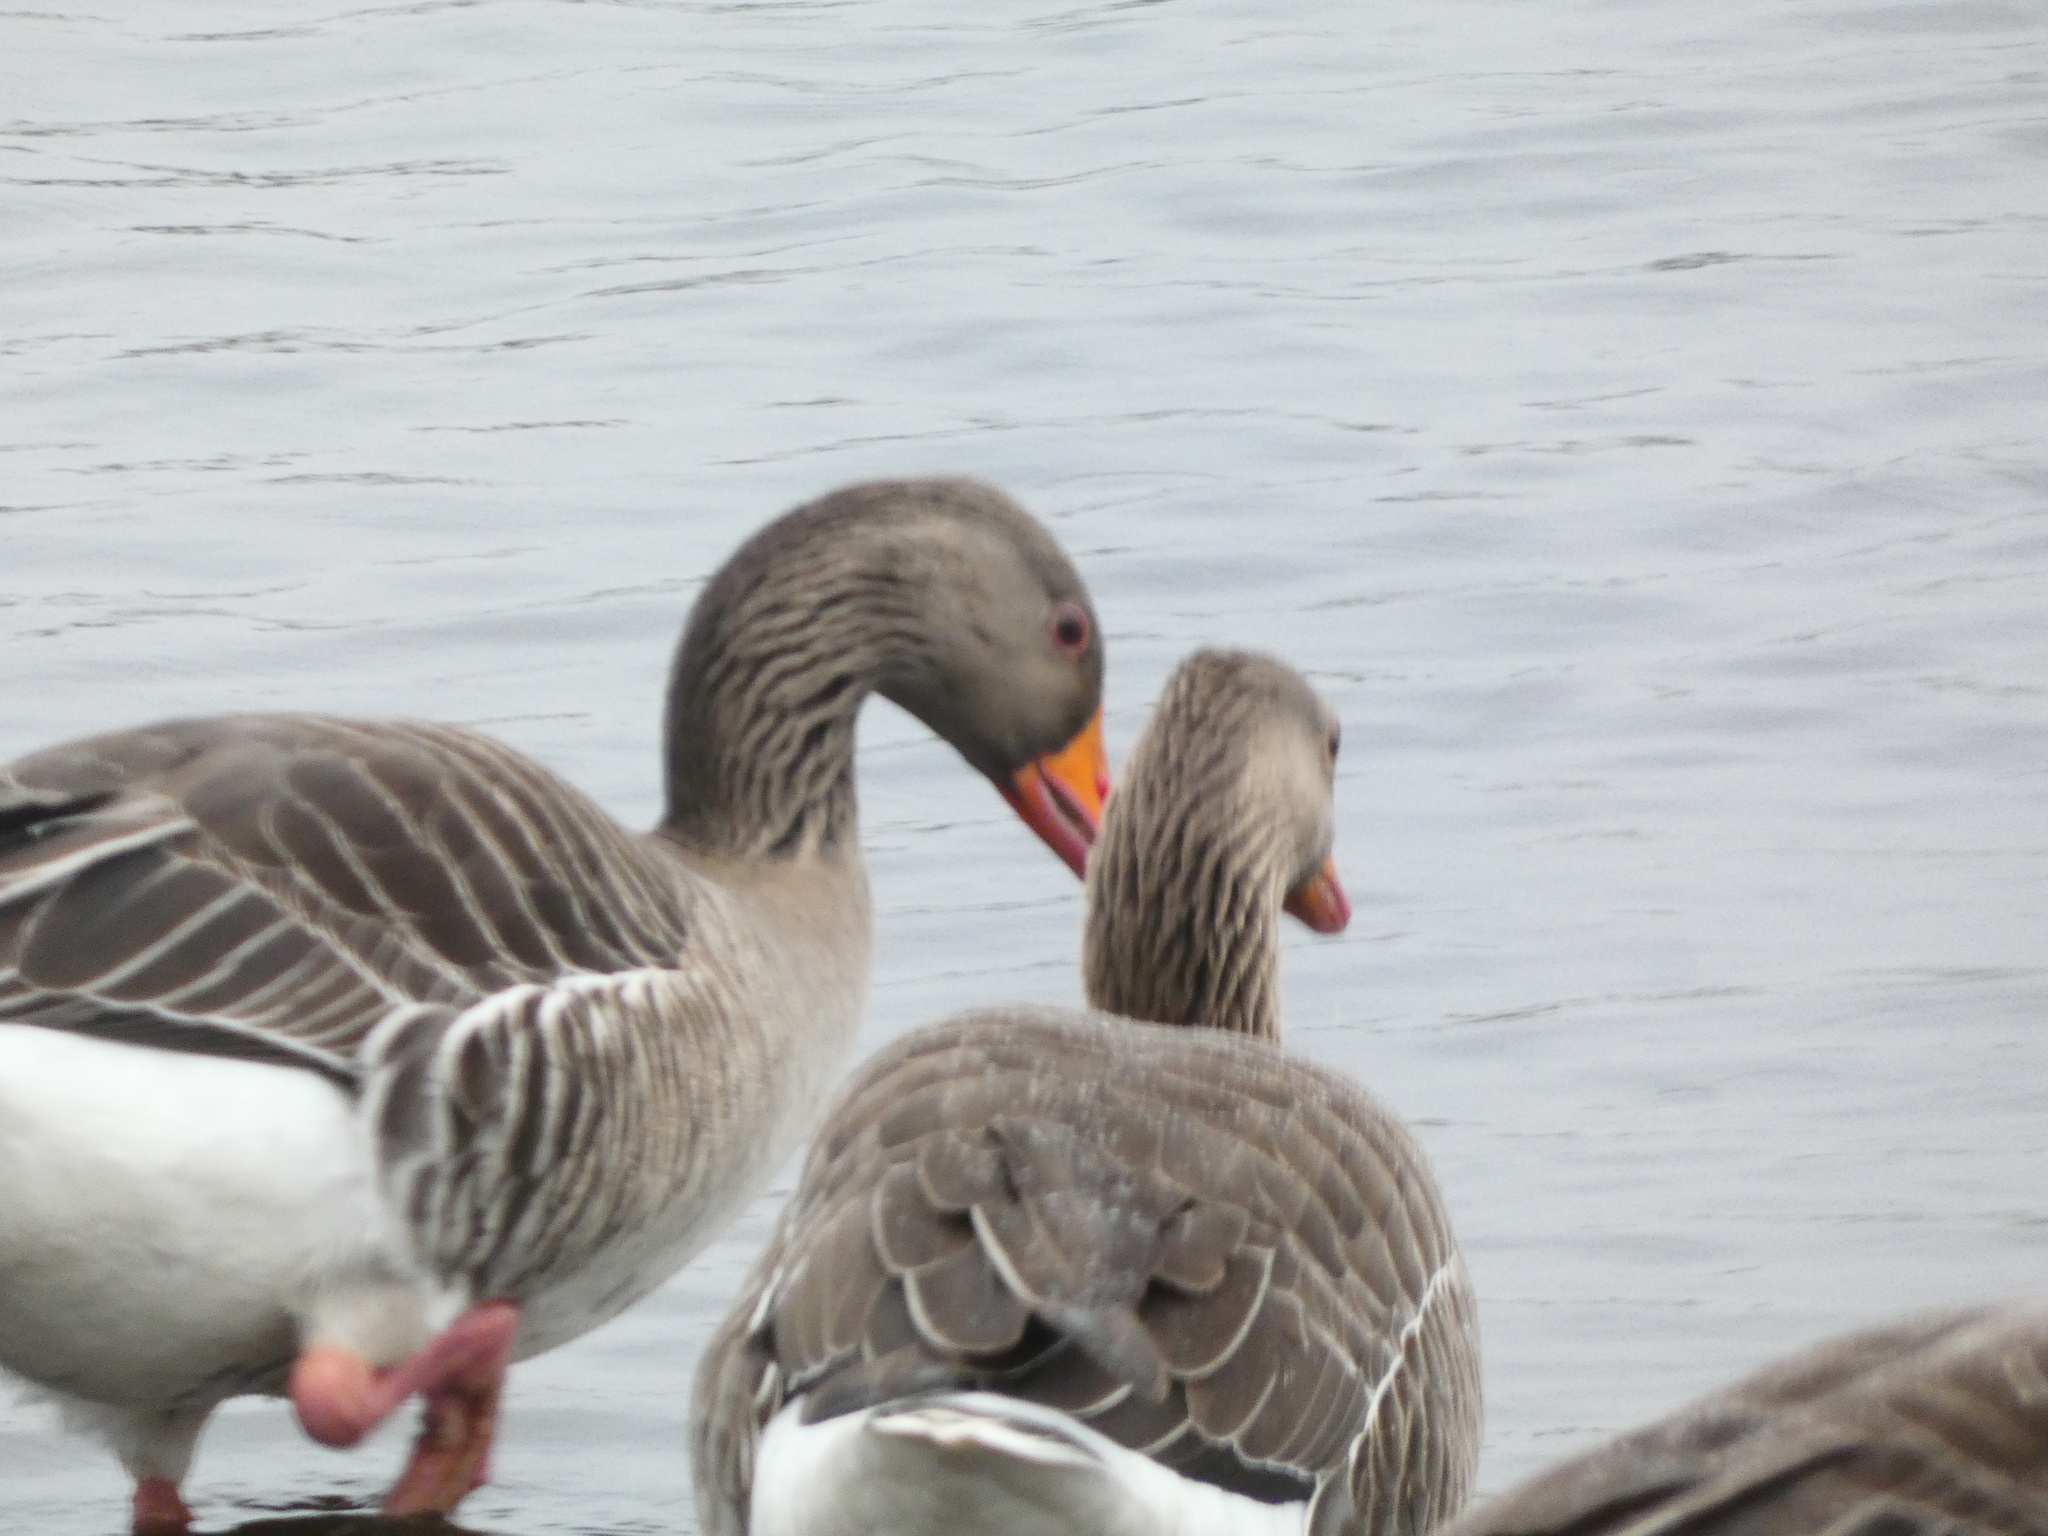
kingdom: Animalia
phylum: Chordata
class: Aves
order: Anseriformes
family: Anatidae
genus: Anser
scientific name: Anser anser
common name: Greylag goose
